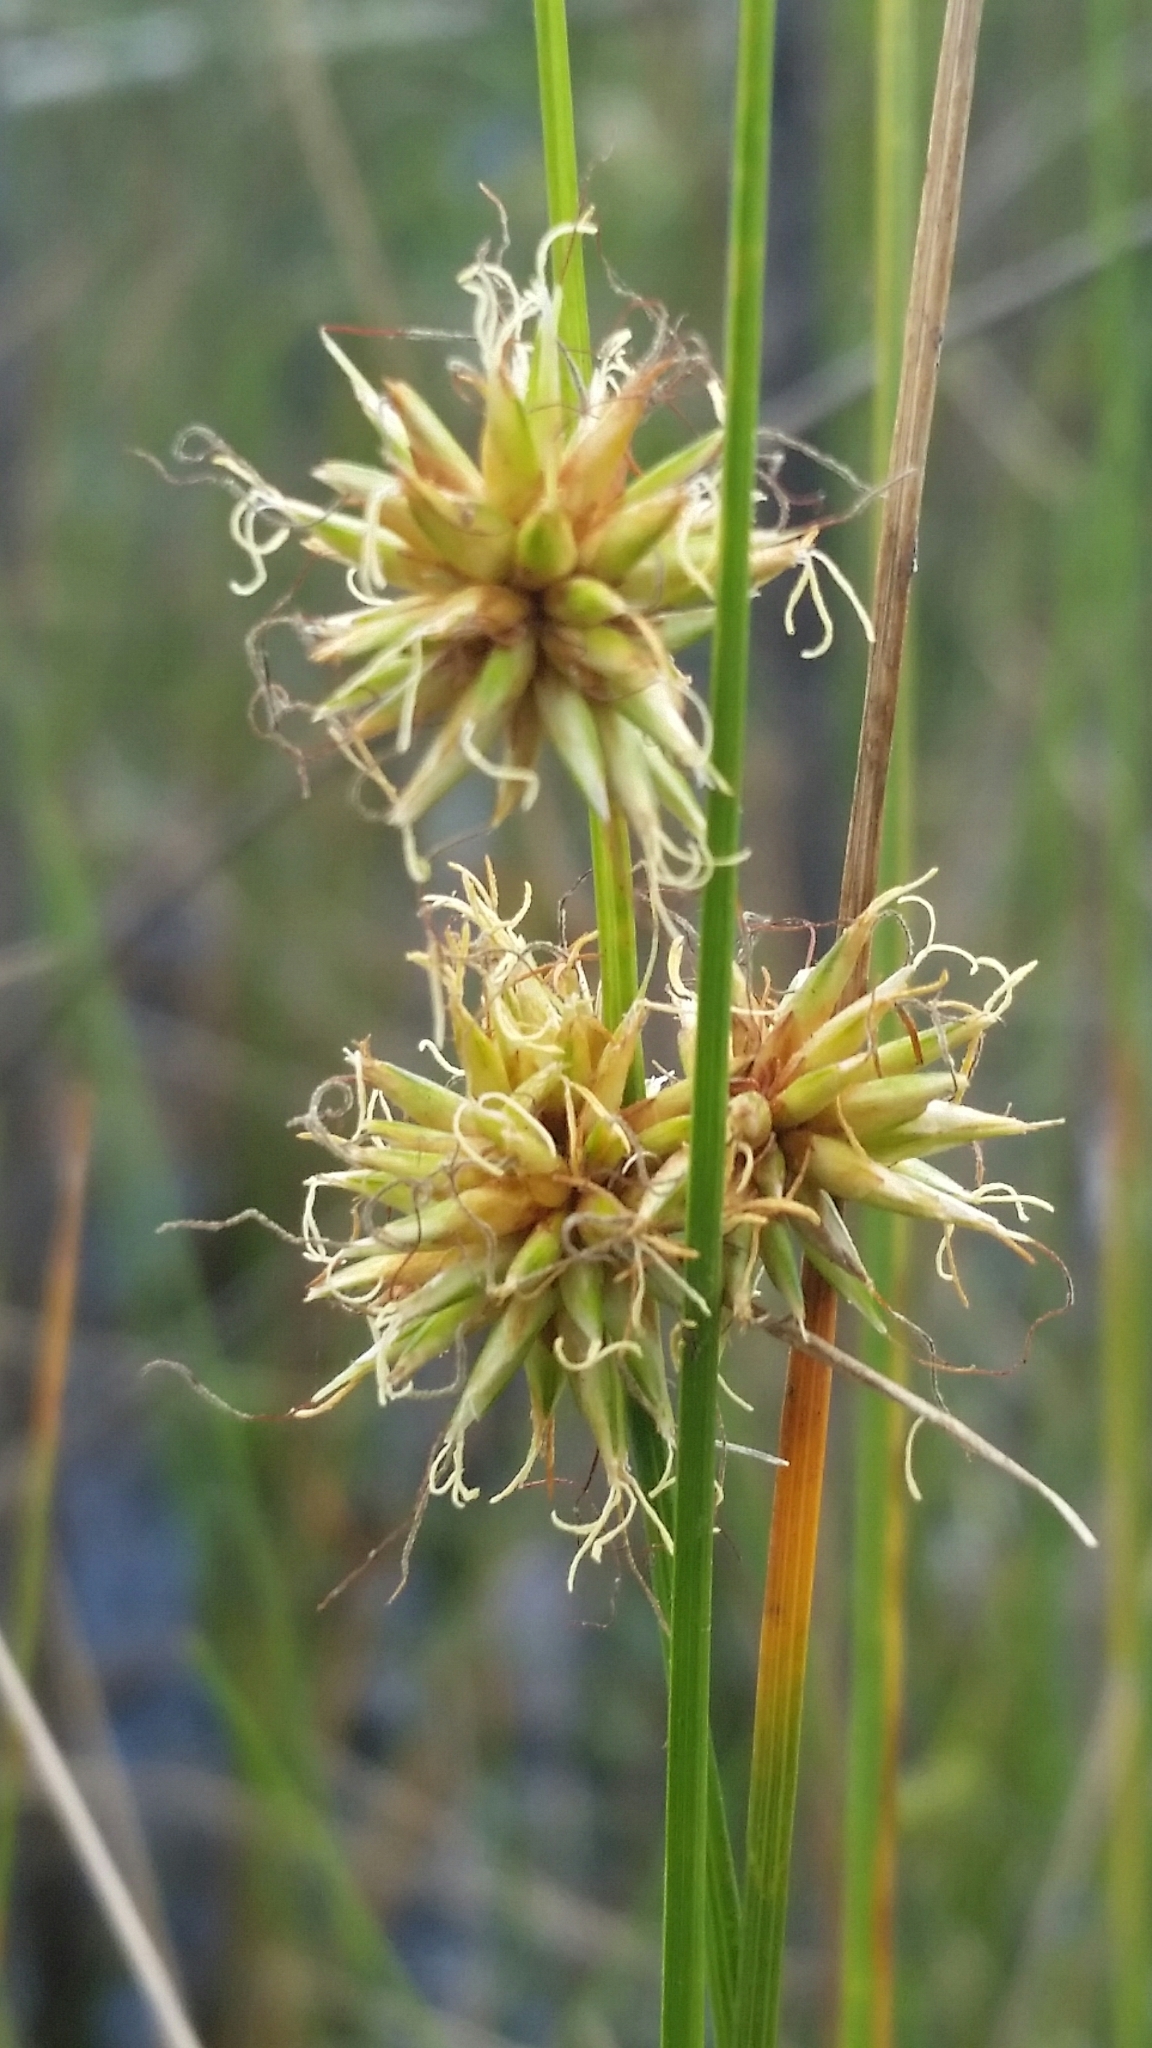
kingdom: Plantae
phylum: Tracheophyta
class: Liliopsida
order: Poales
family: Cyperaceae
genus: Rhynchospora
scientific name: Rhynchospora tracyi
